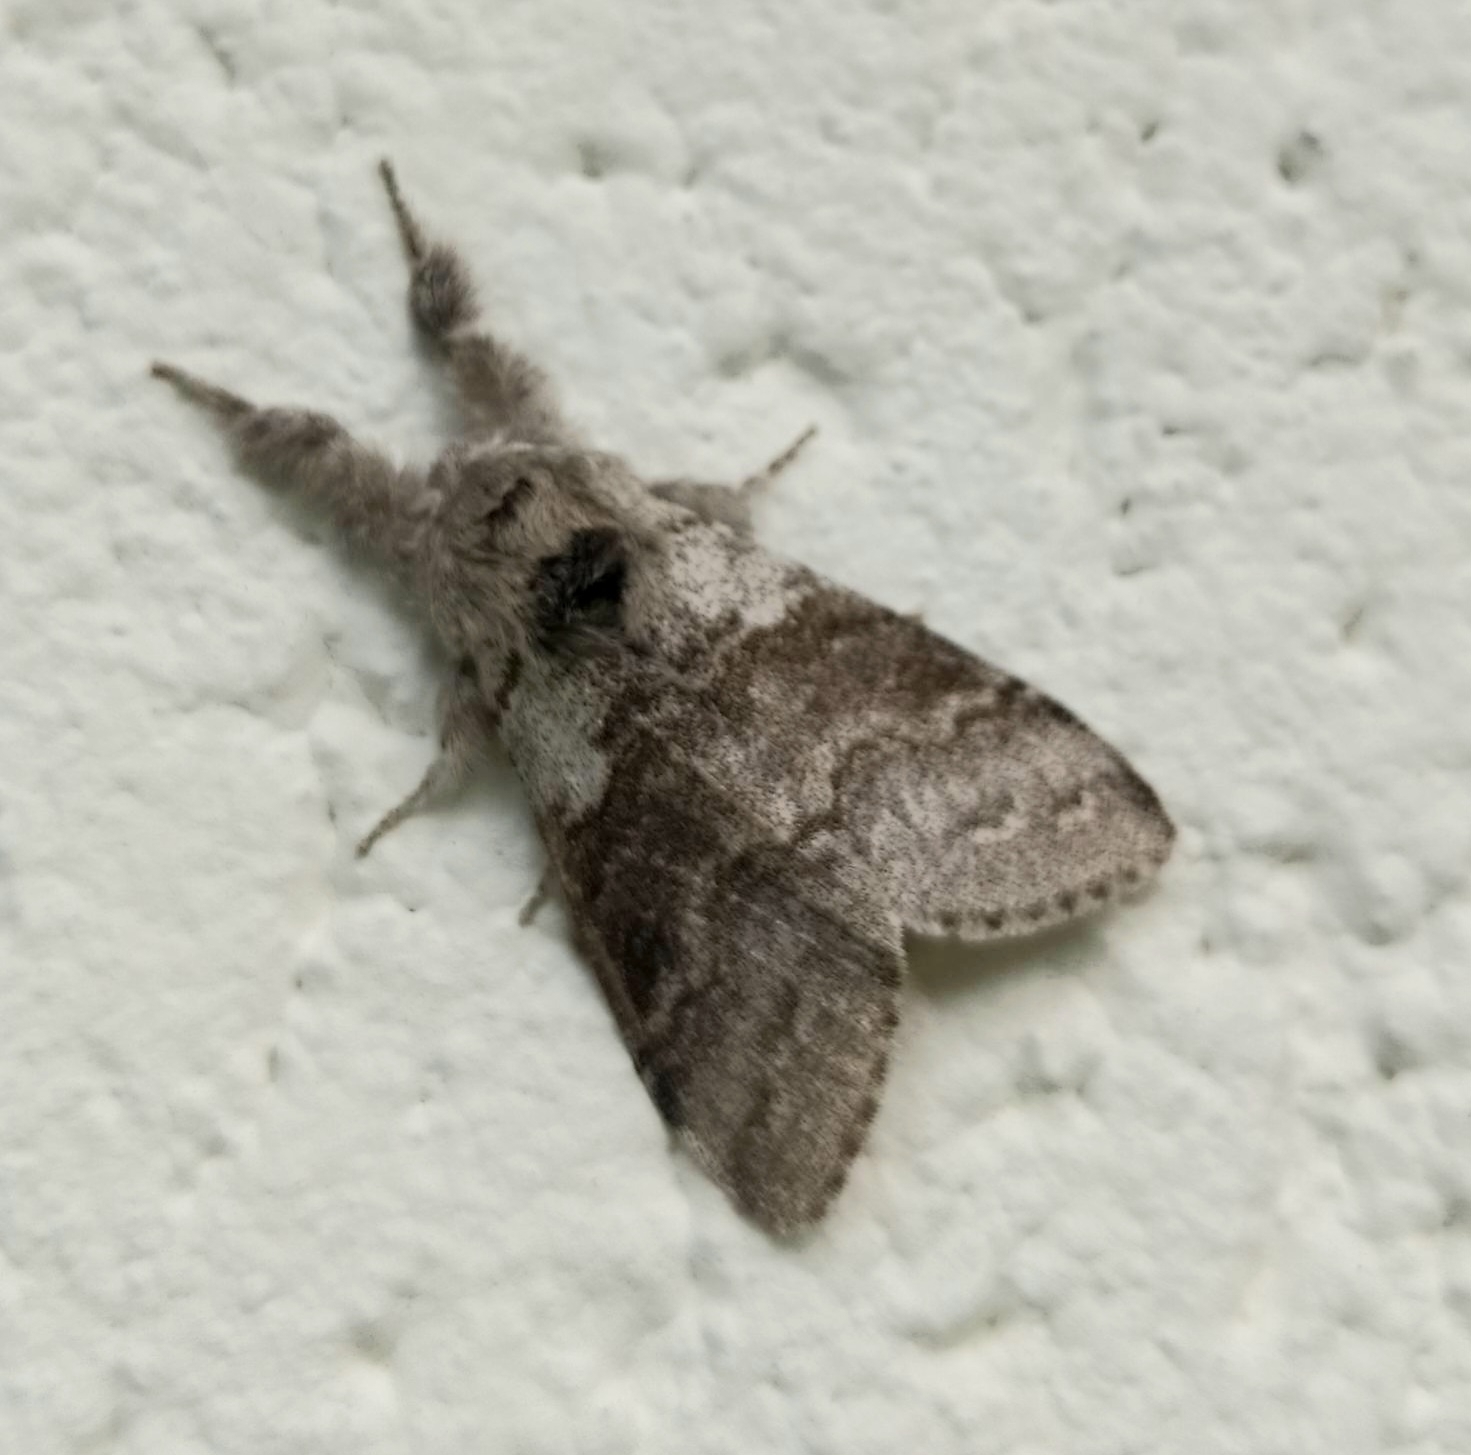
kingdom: Animalia
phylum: Arthropoda
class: Insecta
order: Lepidoptera
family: Erebidae
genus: Calliteara
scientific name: Calliteara pudibunda
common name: Pale tussock
